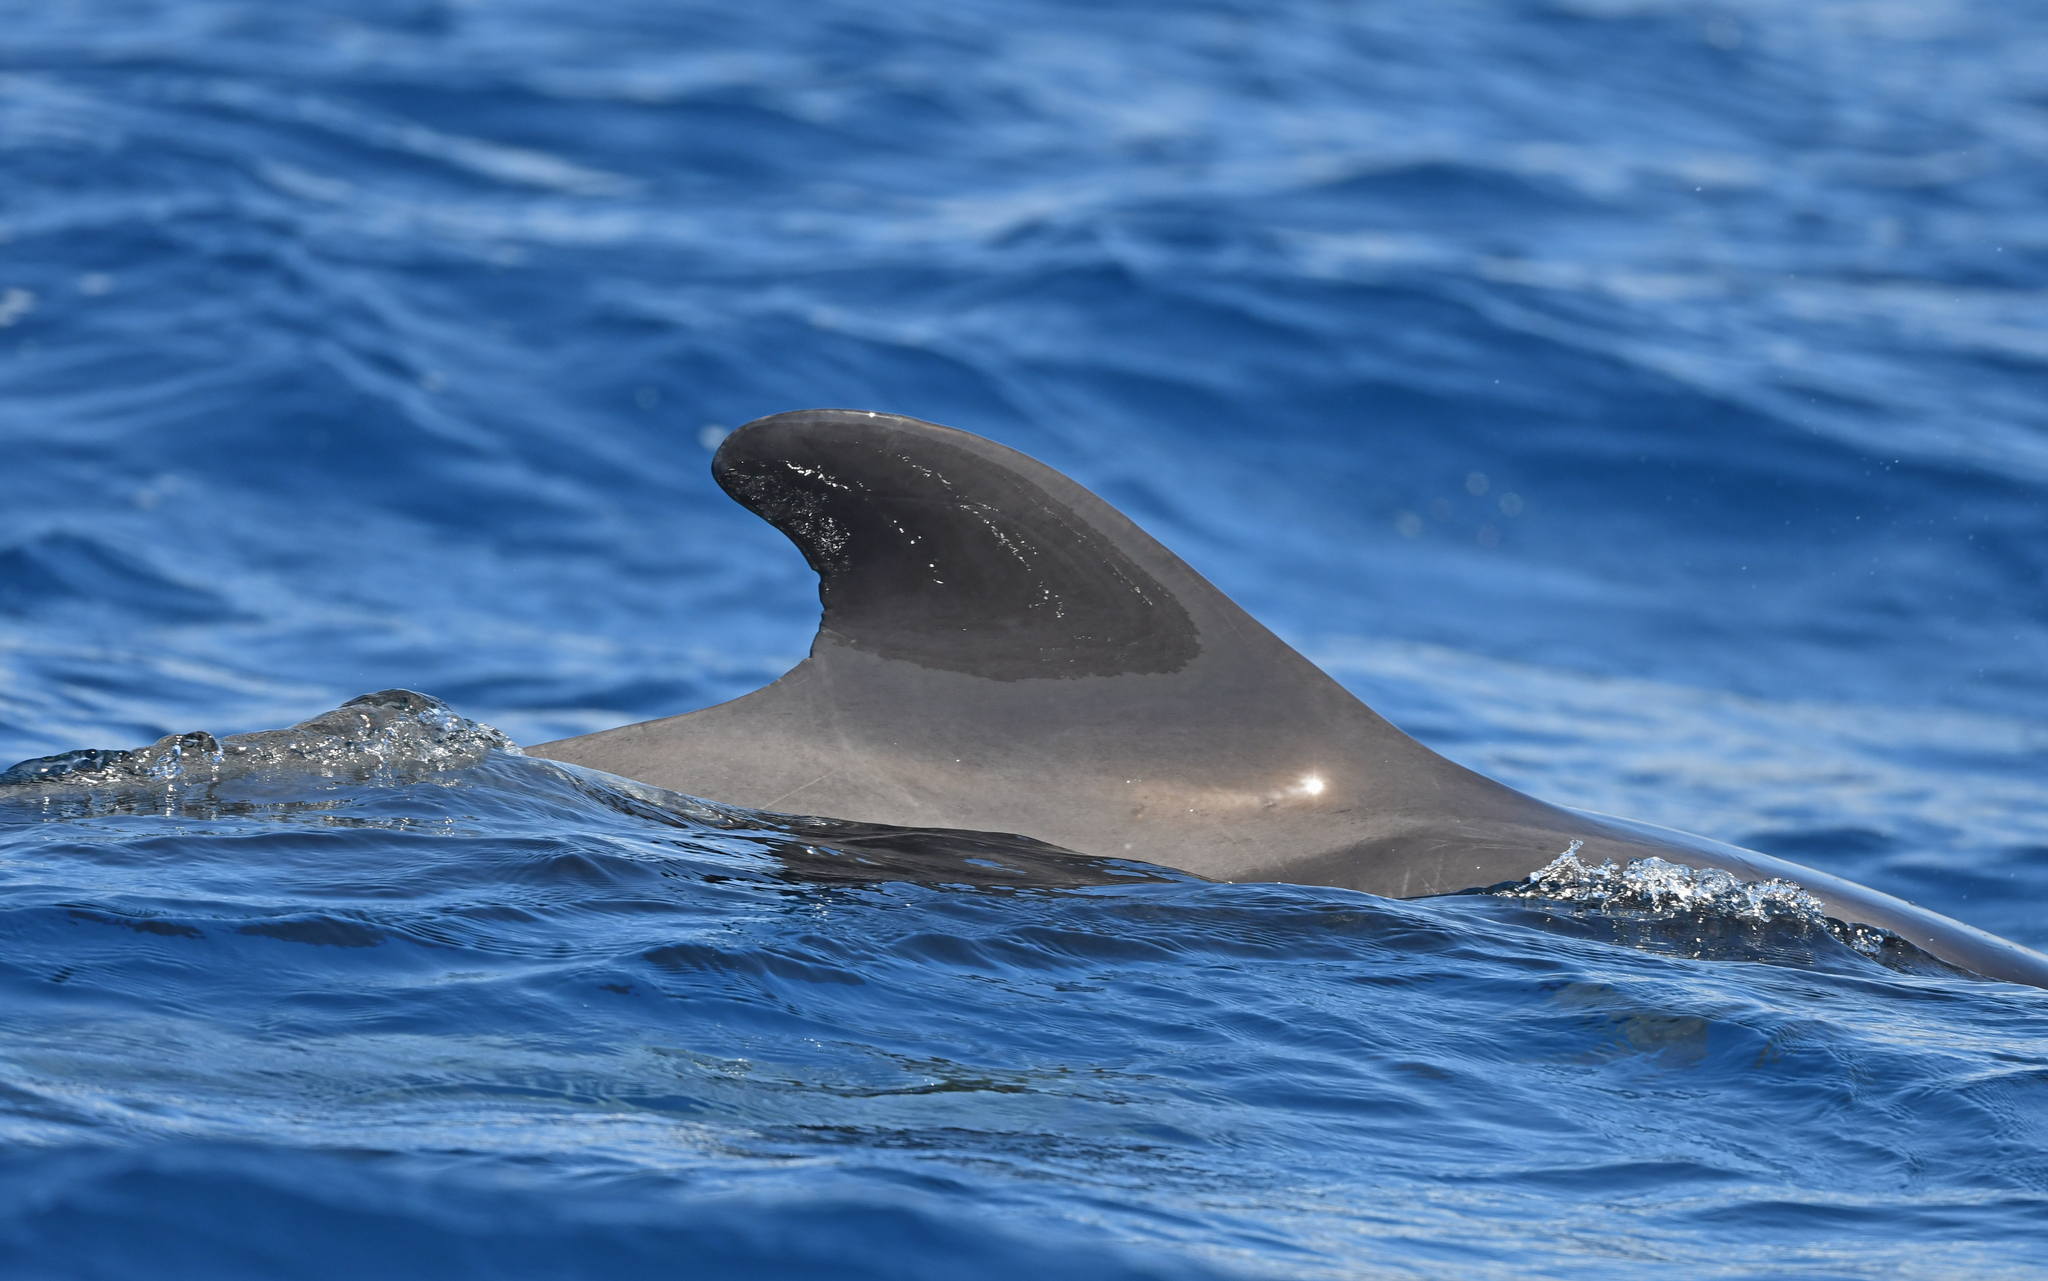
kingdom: Animalia
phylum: Chordata
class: Mammalia
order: Cetacea
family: Delphinidae
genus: Globicephala
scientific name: Globicephala macrorhynchus
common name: Short-finned pilot whale
